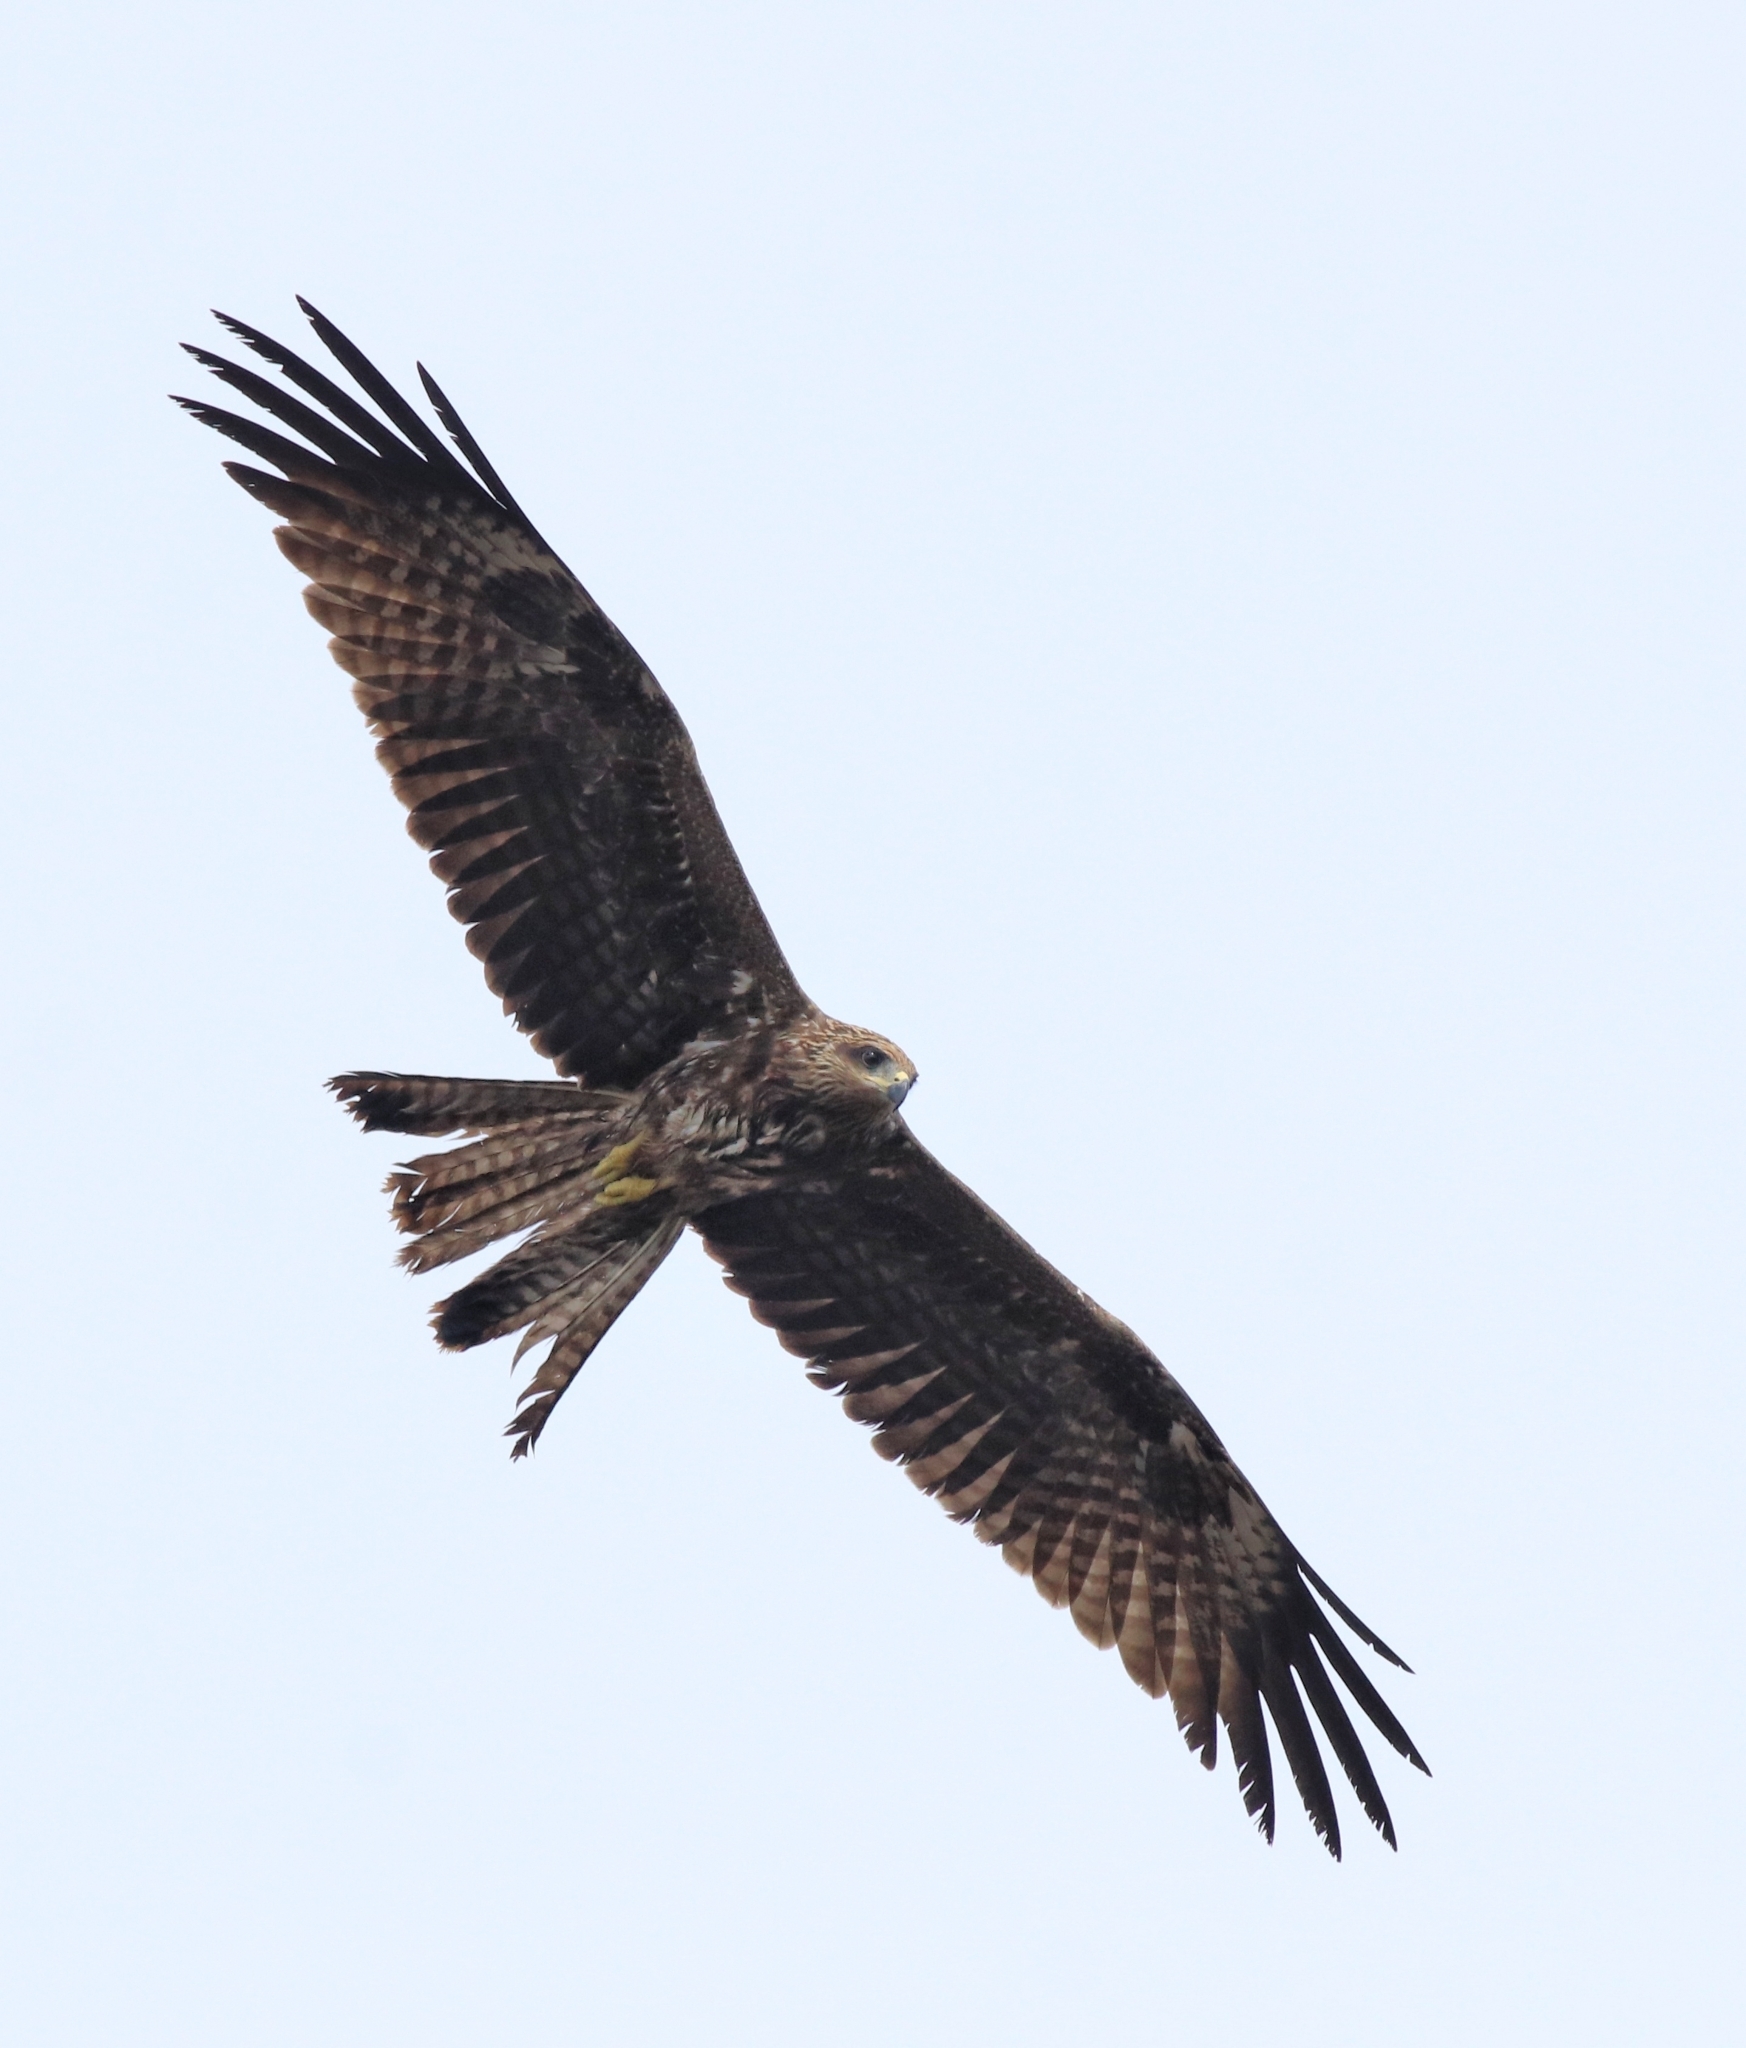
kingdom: Animalia
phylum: Chordata
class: Aves
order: Accipitriformes
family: Accipitridae
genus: Milvus
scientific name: Milvus migrans
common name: Black kite
